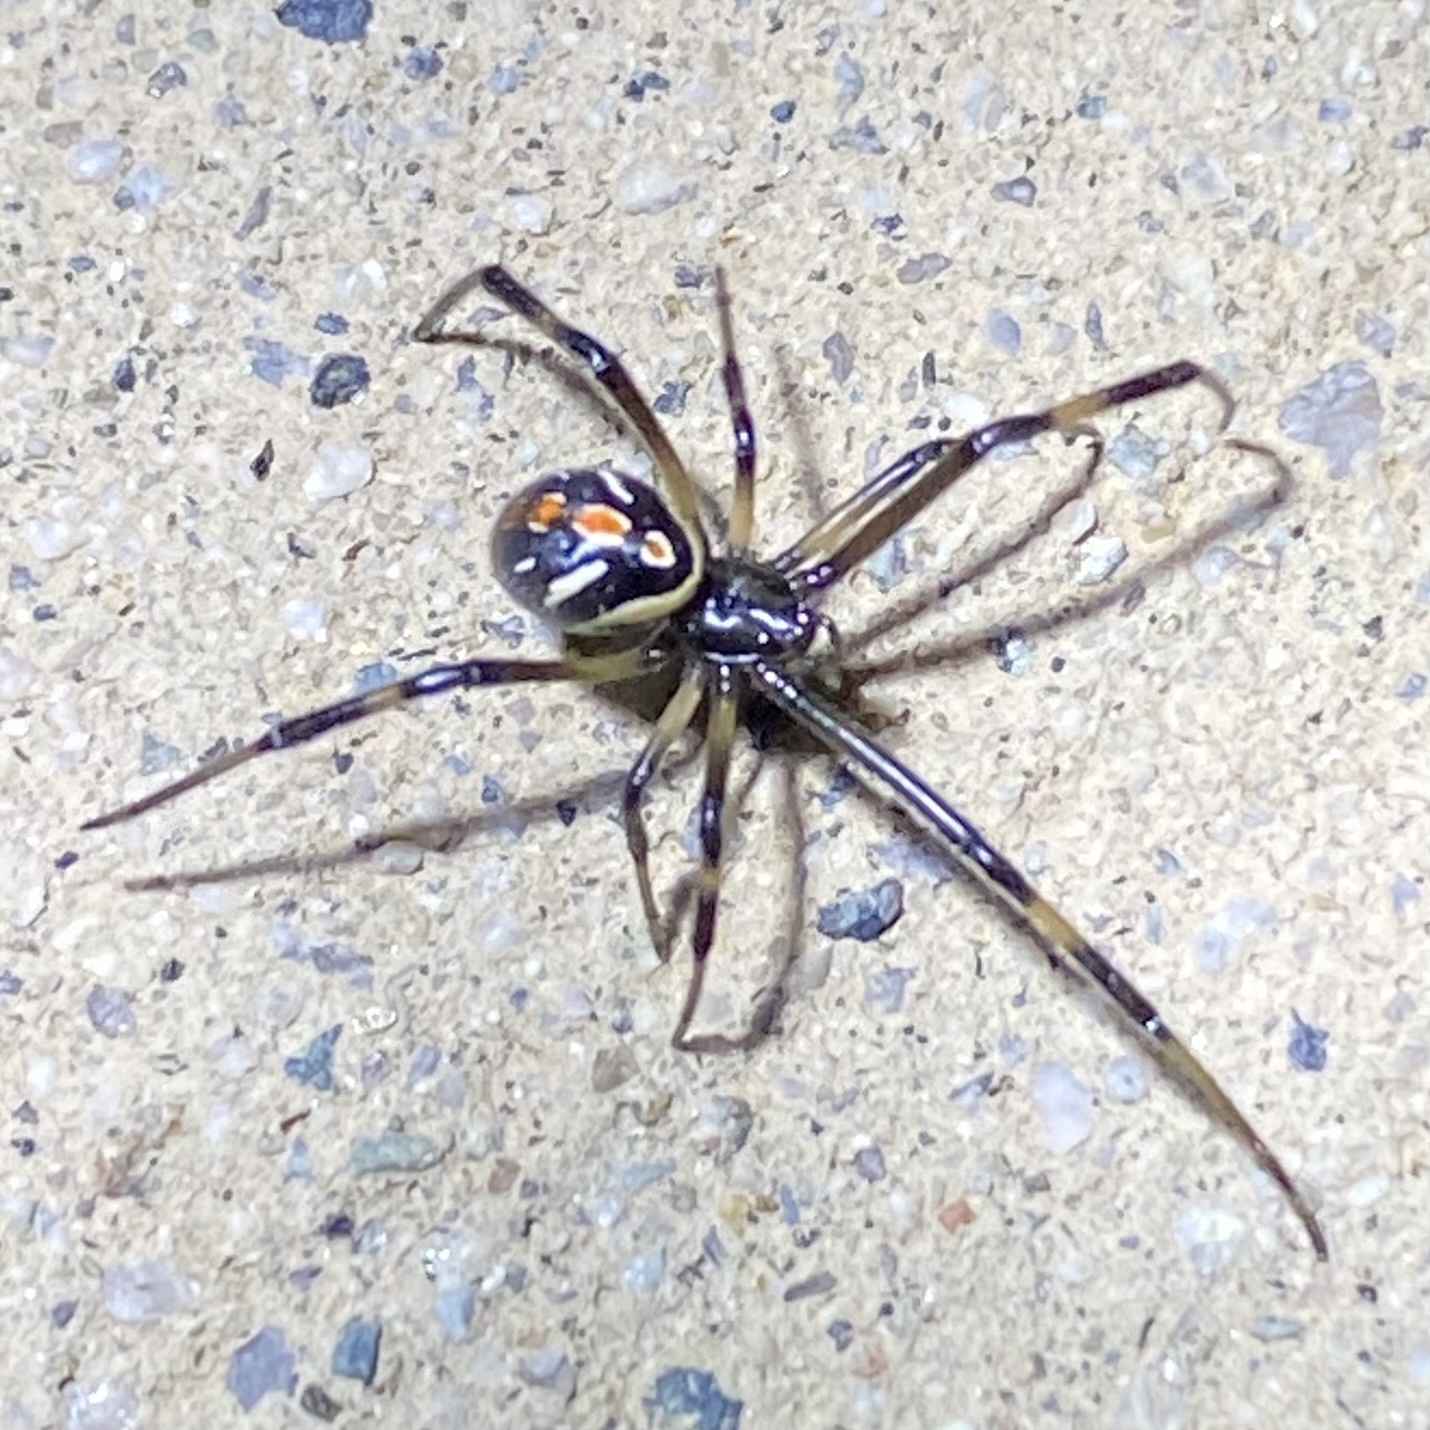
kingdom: Animalia
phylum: Arthropoda
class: Arachnida
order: Araneae
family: Theridiidae
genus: Latrodectus
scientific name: Latrodectus hesperus
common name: Western black widow
